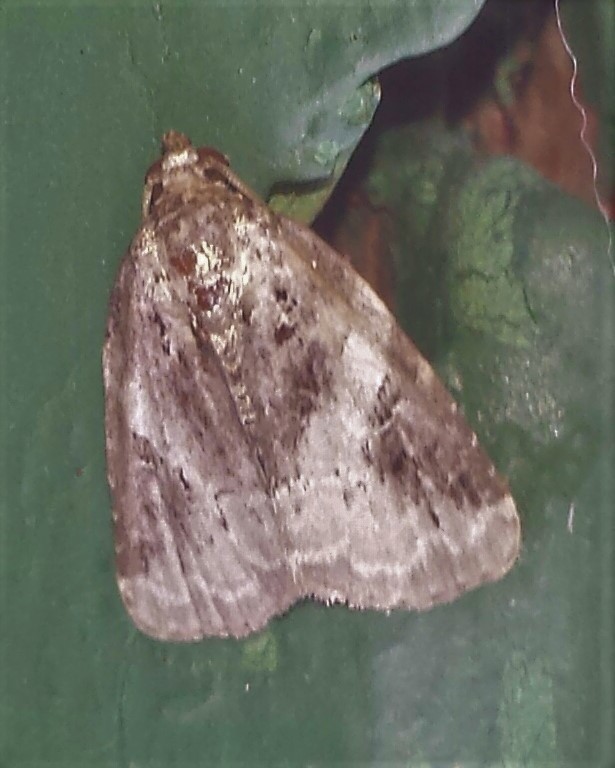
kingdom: Animalia
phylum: Arthropoda
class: Insecta
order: Lepidoptera
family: Noctuidae
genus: Pseudeustrotia
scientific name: Pseudeustrotia carneola
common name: Pink-barred lithacodia moth
